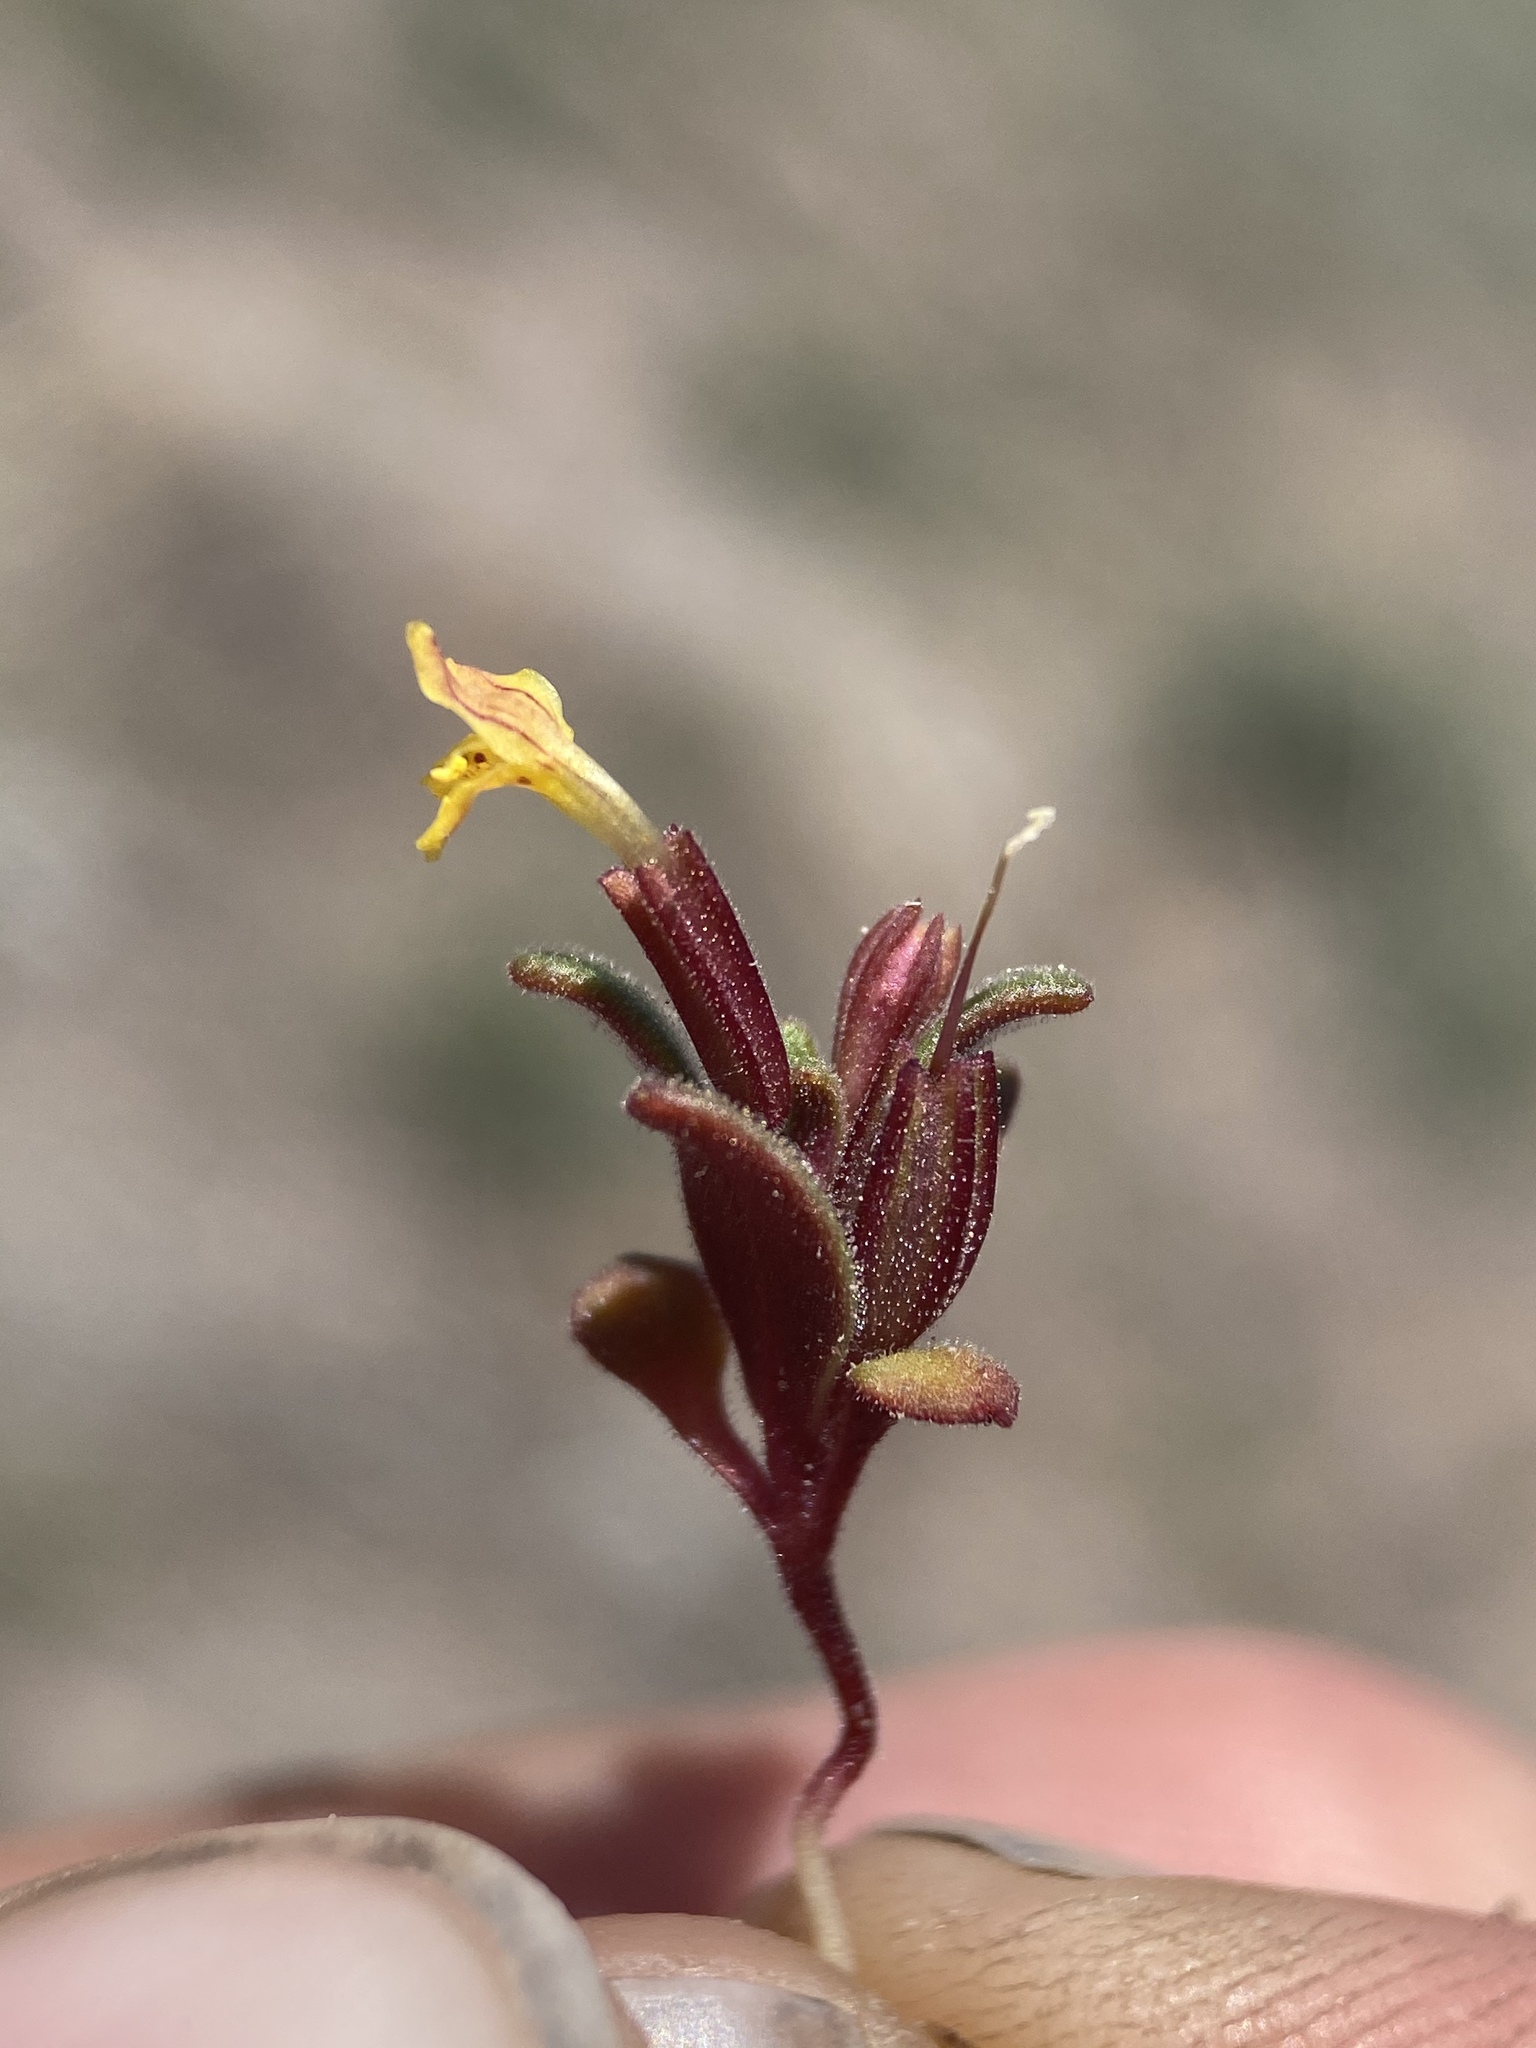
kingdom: Plantae
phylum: Tracheophyta
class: Magnoliopsida
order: Lamiales
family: Phrymaceae
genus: Erythranthe
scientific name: Erythranthe suksdorfii
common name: Suksdorf's monkeyflower
